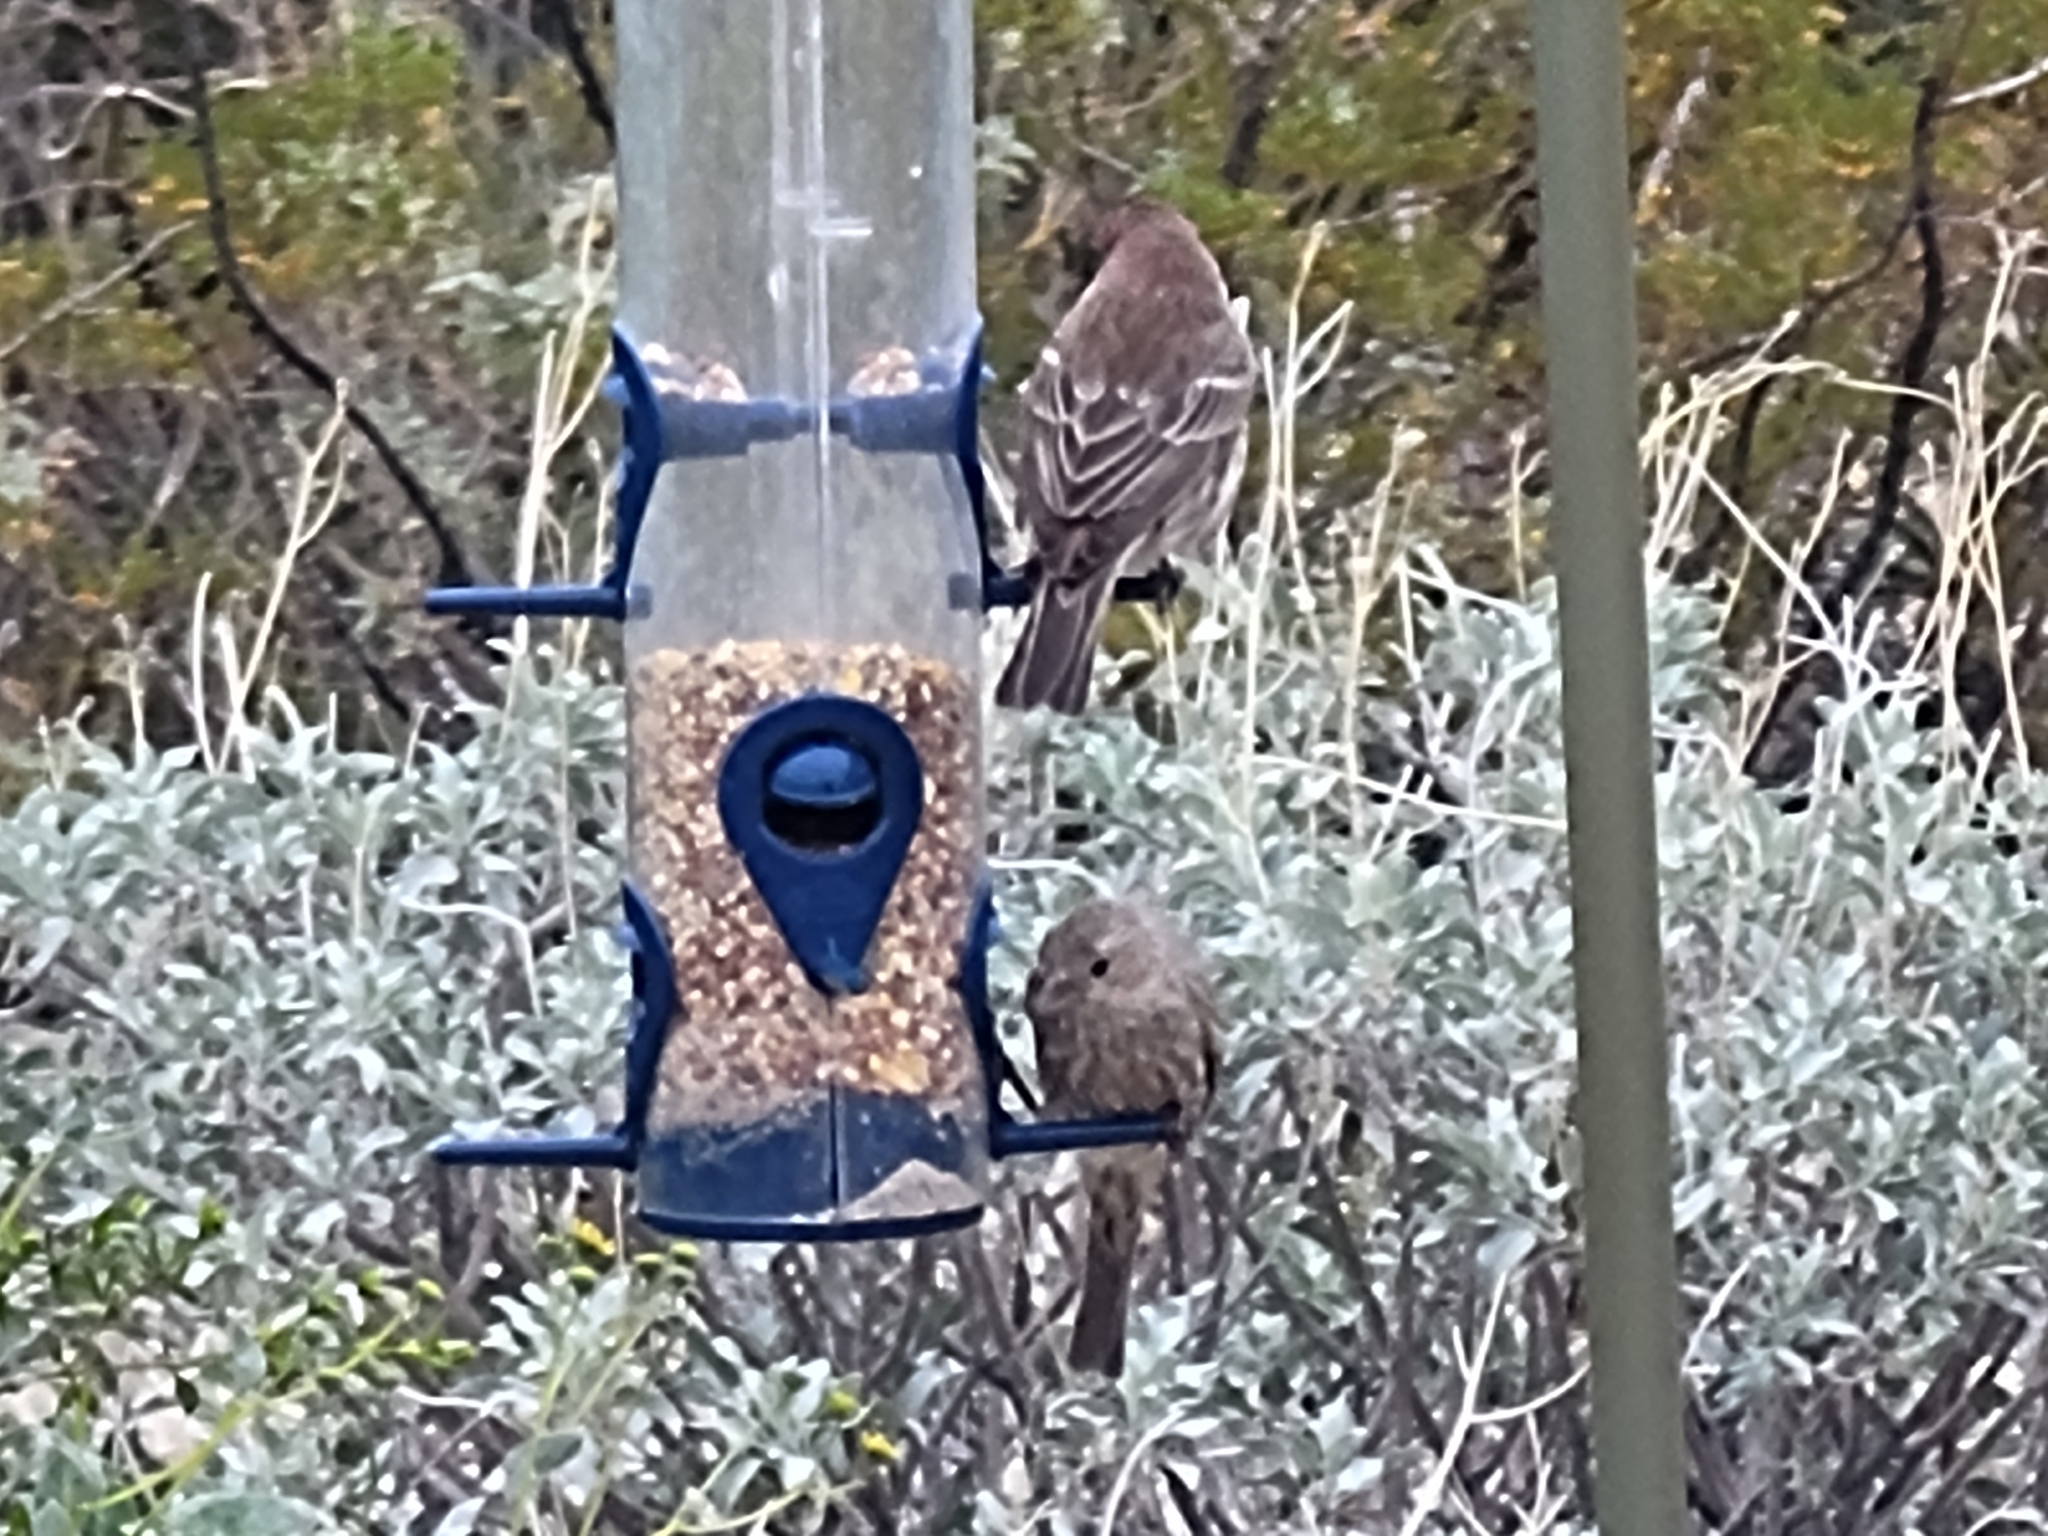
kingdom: Animalia
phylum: Chordata
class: Aves
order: Passeriformes
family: Fringillidae
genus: Haemorhous
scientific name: Haemorhous mexicanus
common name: House finch
